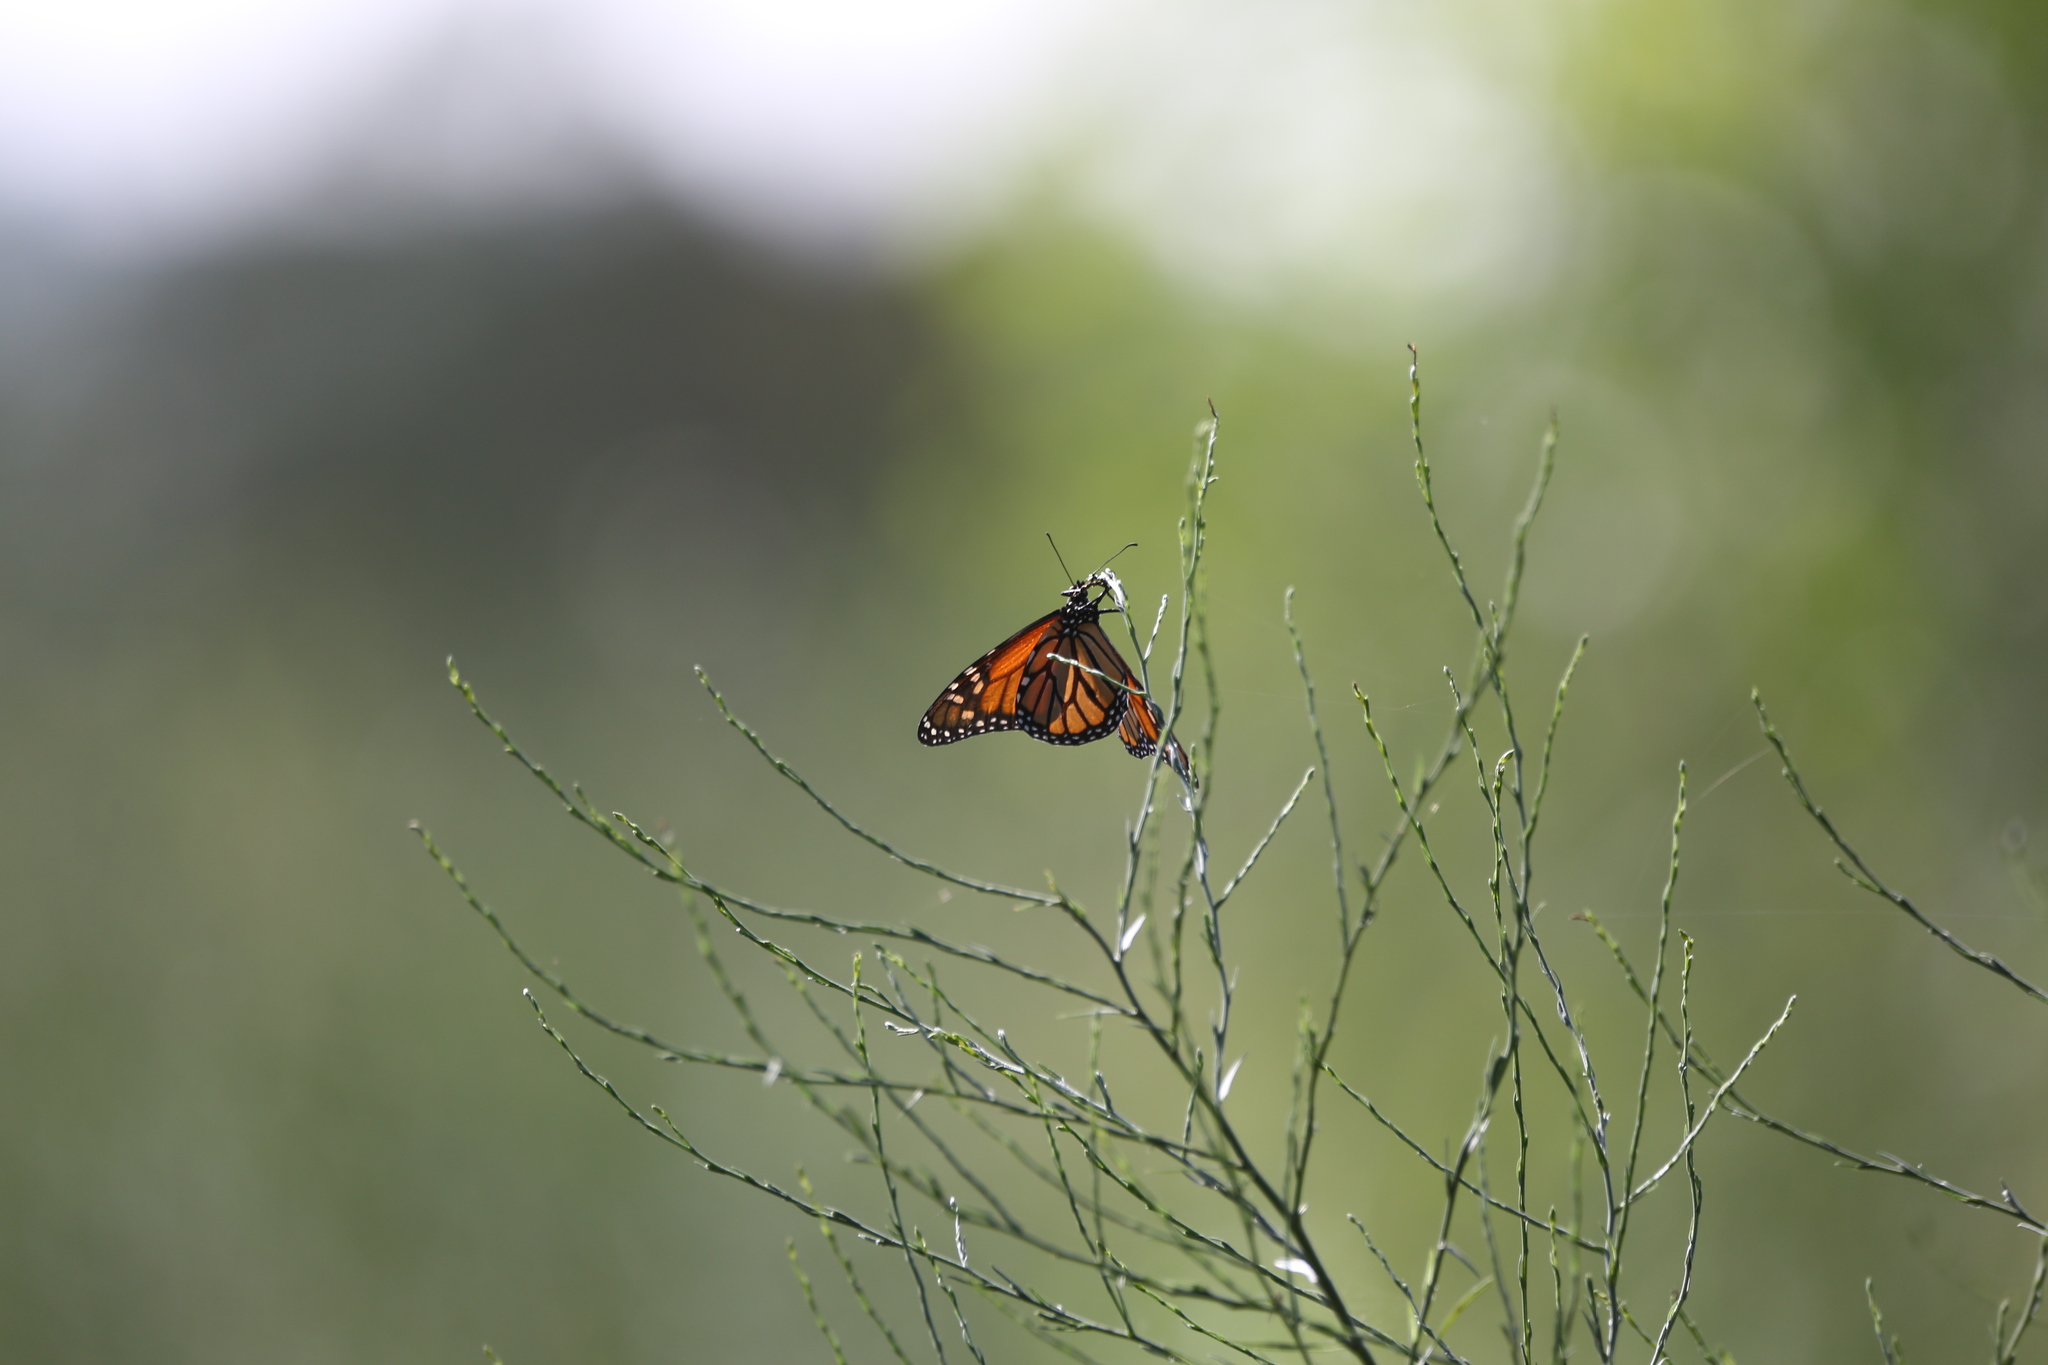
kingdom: Animalia
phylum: Arthropoda
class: Insecta
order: Lepidoptera
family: Nymphalidae
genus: Danaus
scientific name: Danaus plexippus
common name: Monarch
